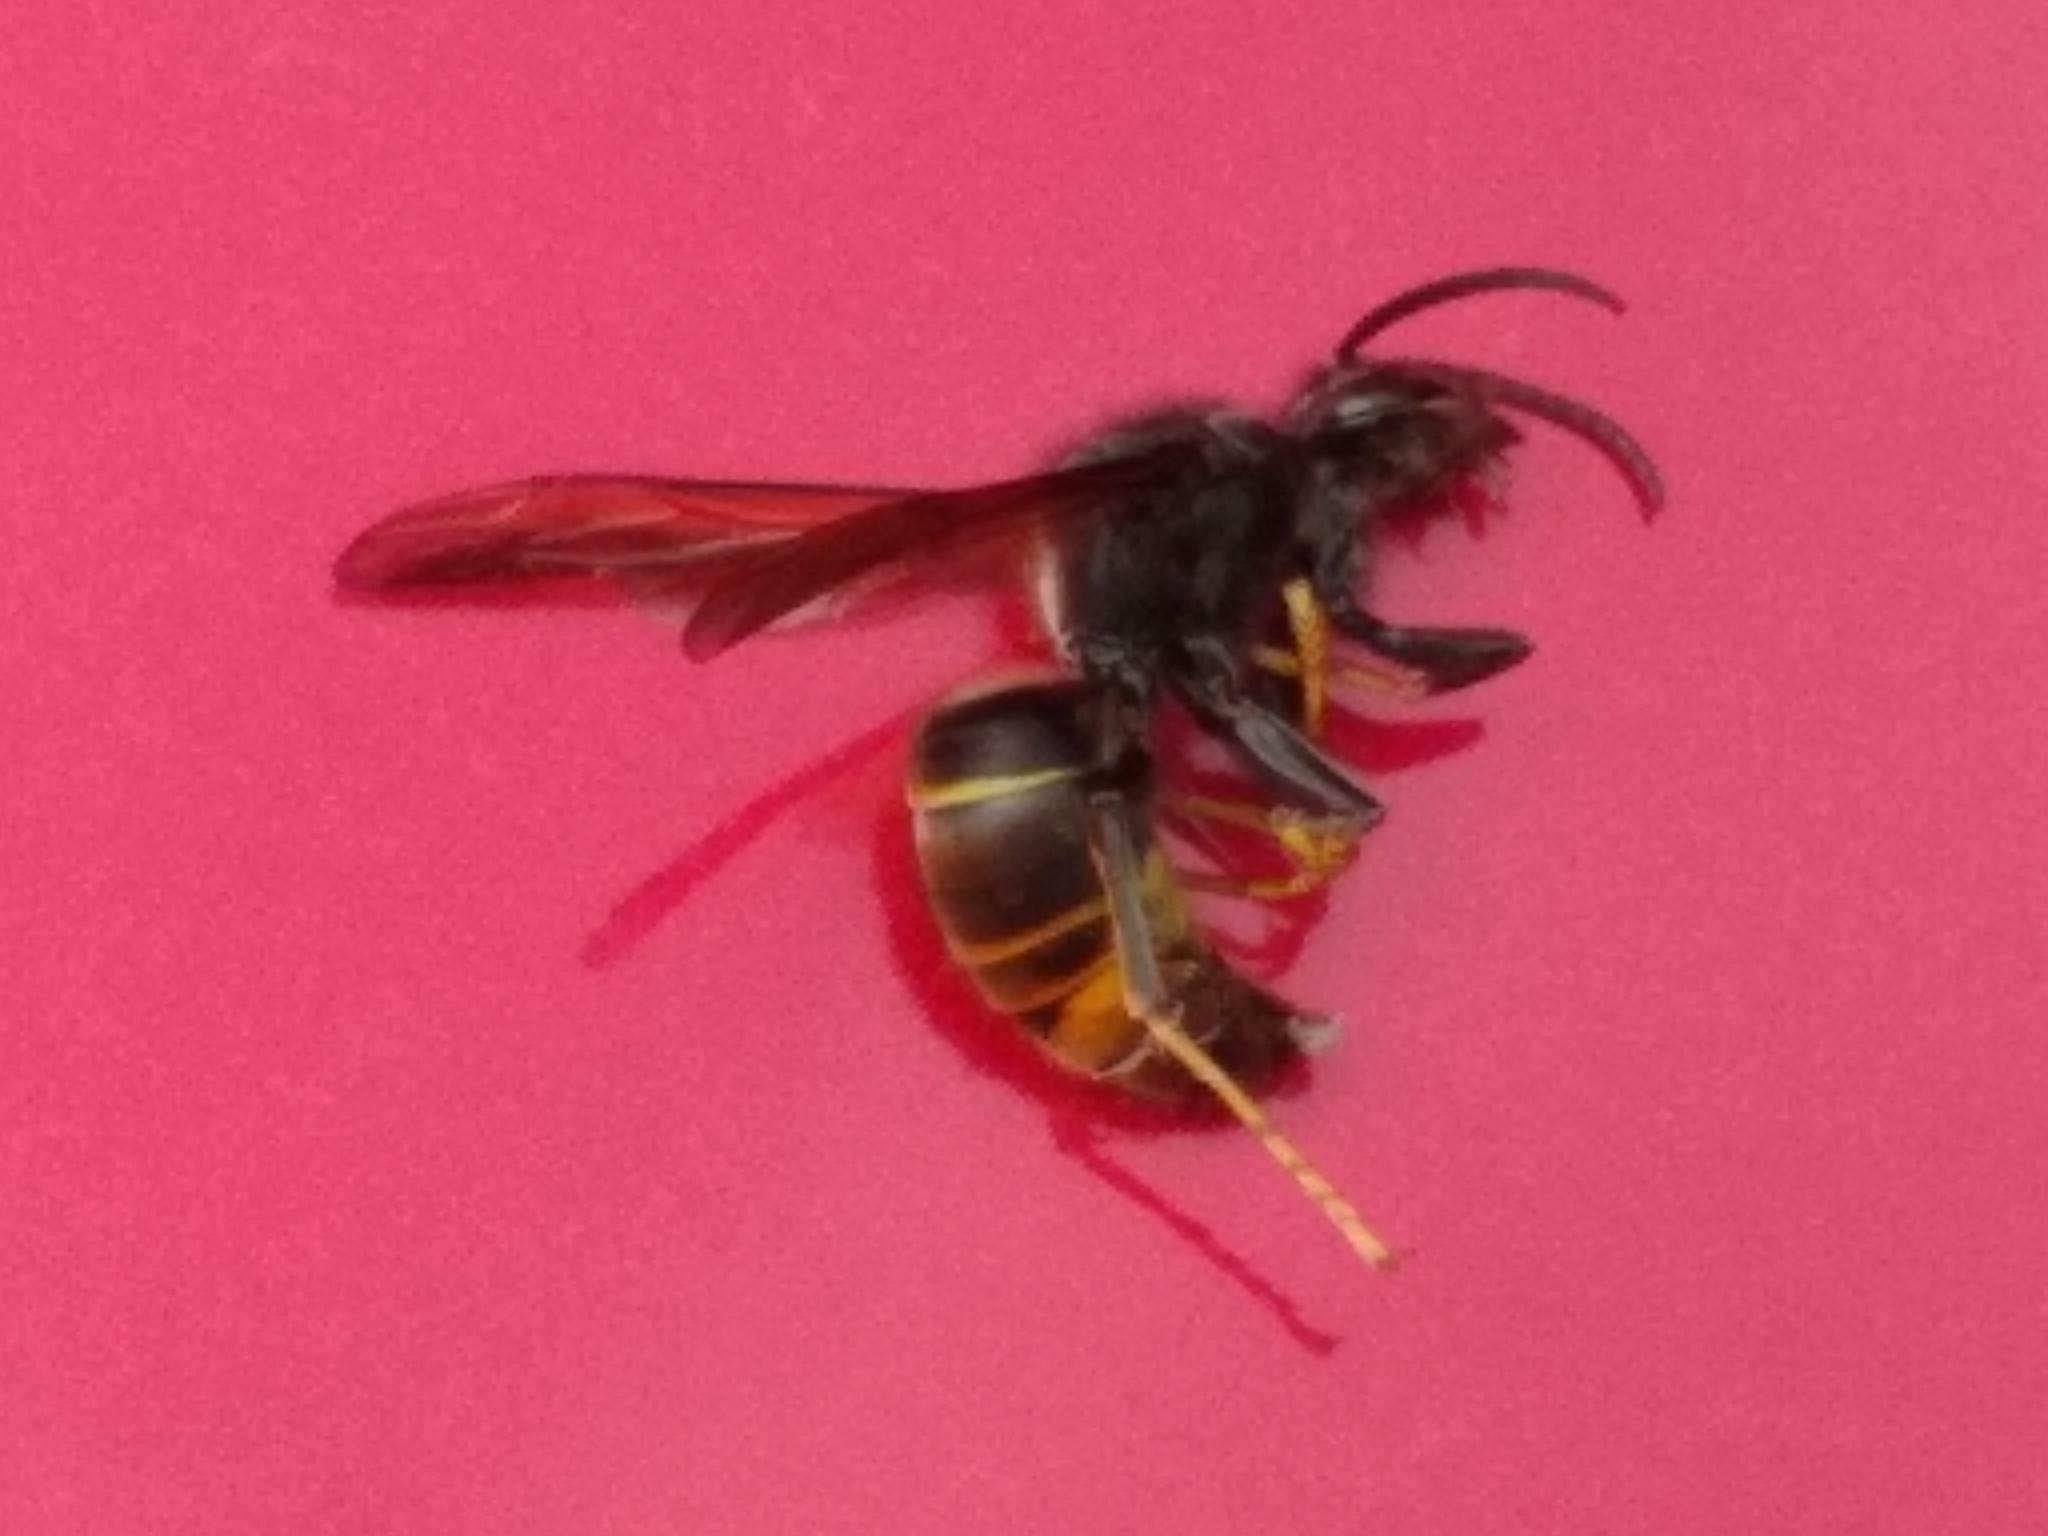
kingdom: Animalia
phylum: Arthropoda
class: Insecta
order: Hymenoptera
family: Vespidae
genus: Vespa
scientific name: Vespa velutina
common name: Asian hornet
